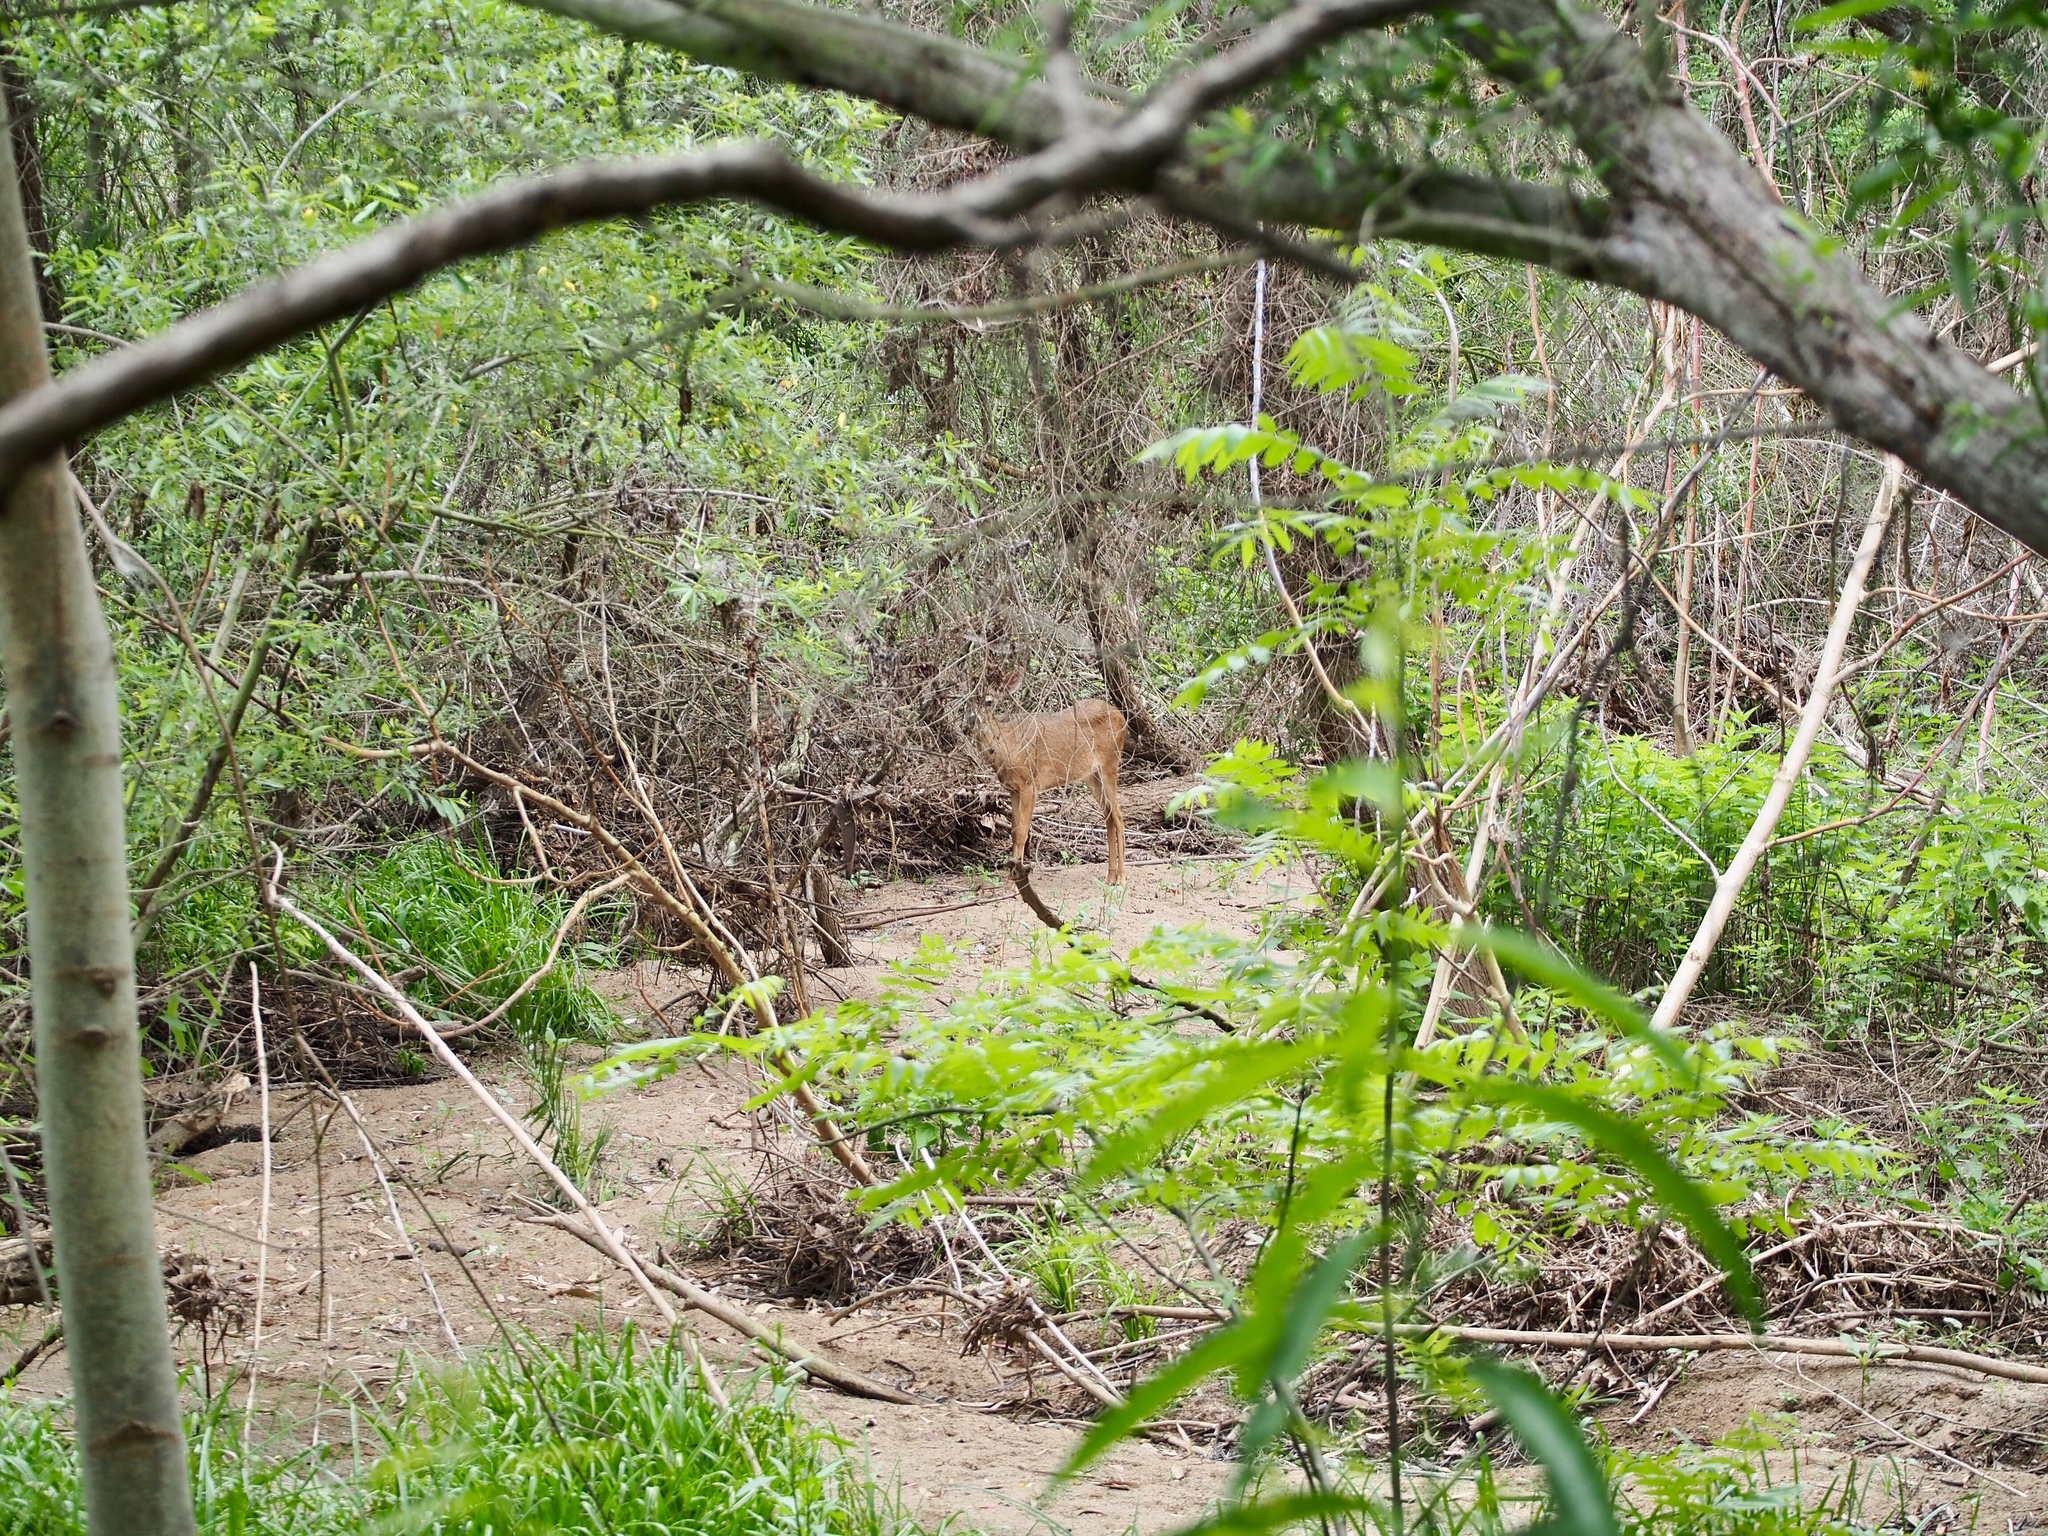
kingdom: Animalia
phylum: Chordata
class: Mammalia
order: Artiodactyla
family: Cervidae
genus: Odocoileus
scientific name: Odocoileus hemionus
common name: Mule deer
